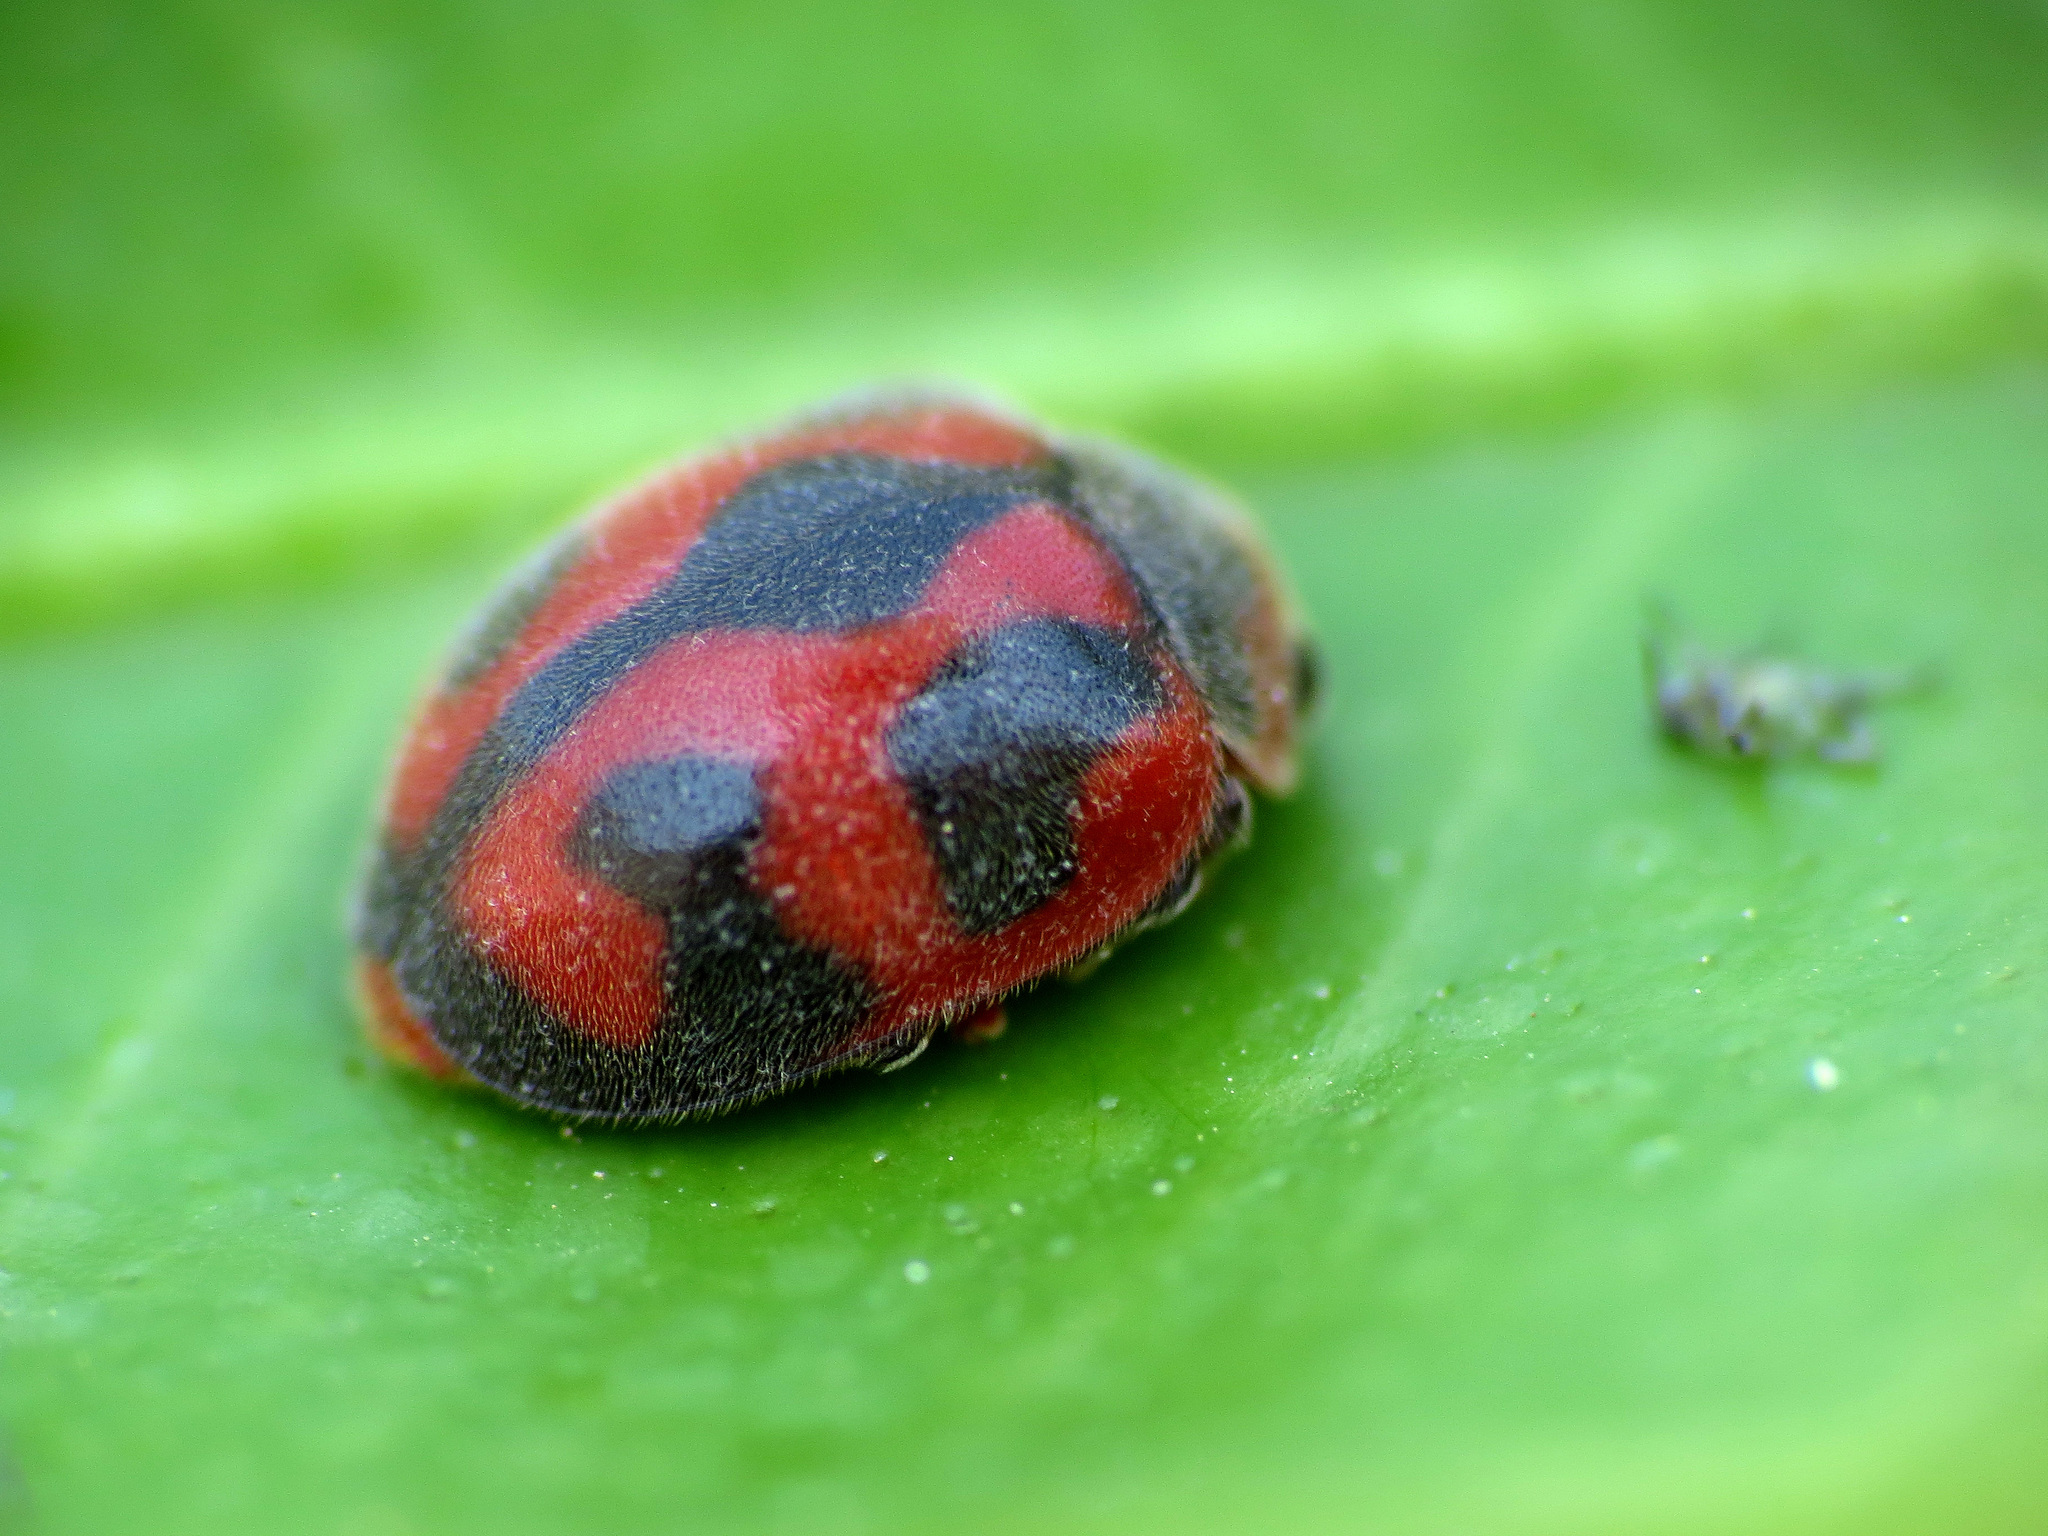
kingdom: Animalia
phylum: Arthropoda
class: Insecta
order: Coleoptera
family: Coccinellidae
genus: Novius
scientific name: Novius cardinalis
